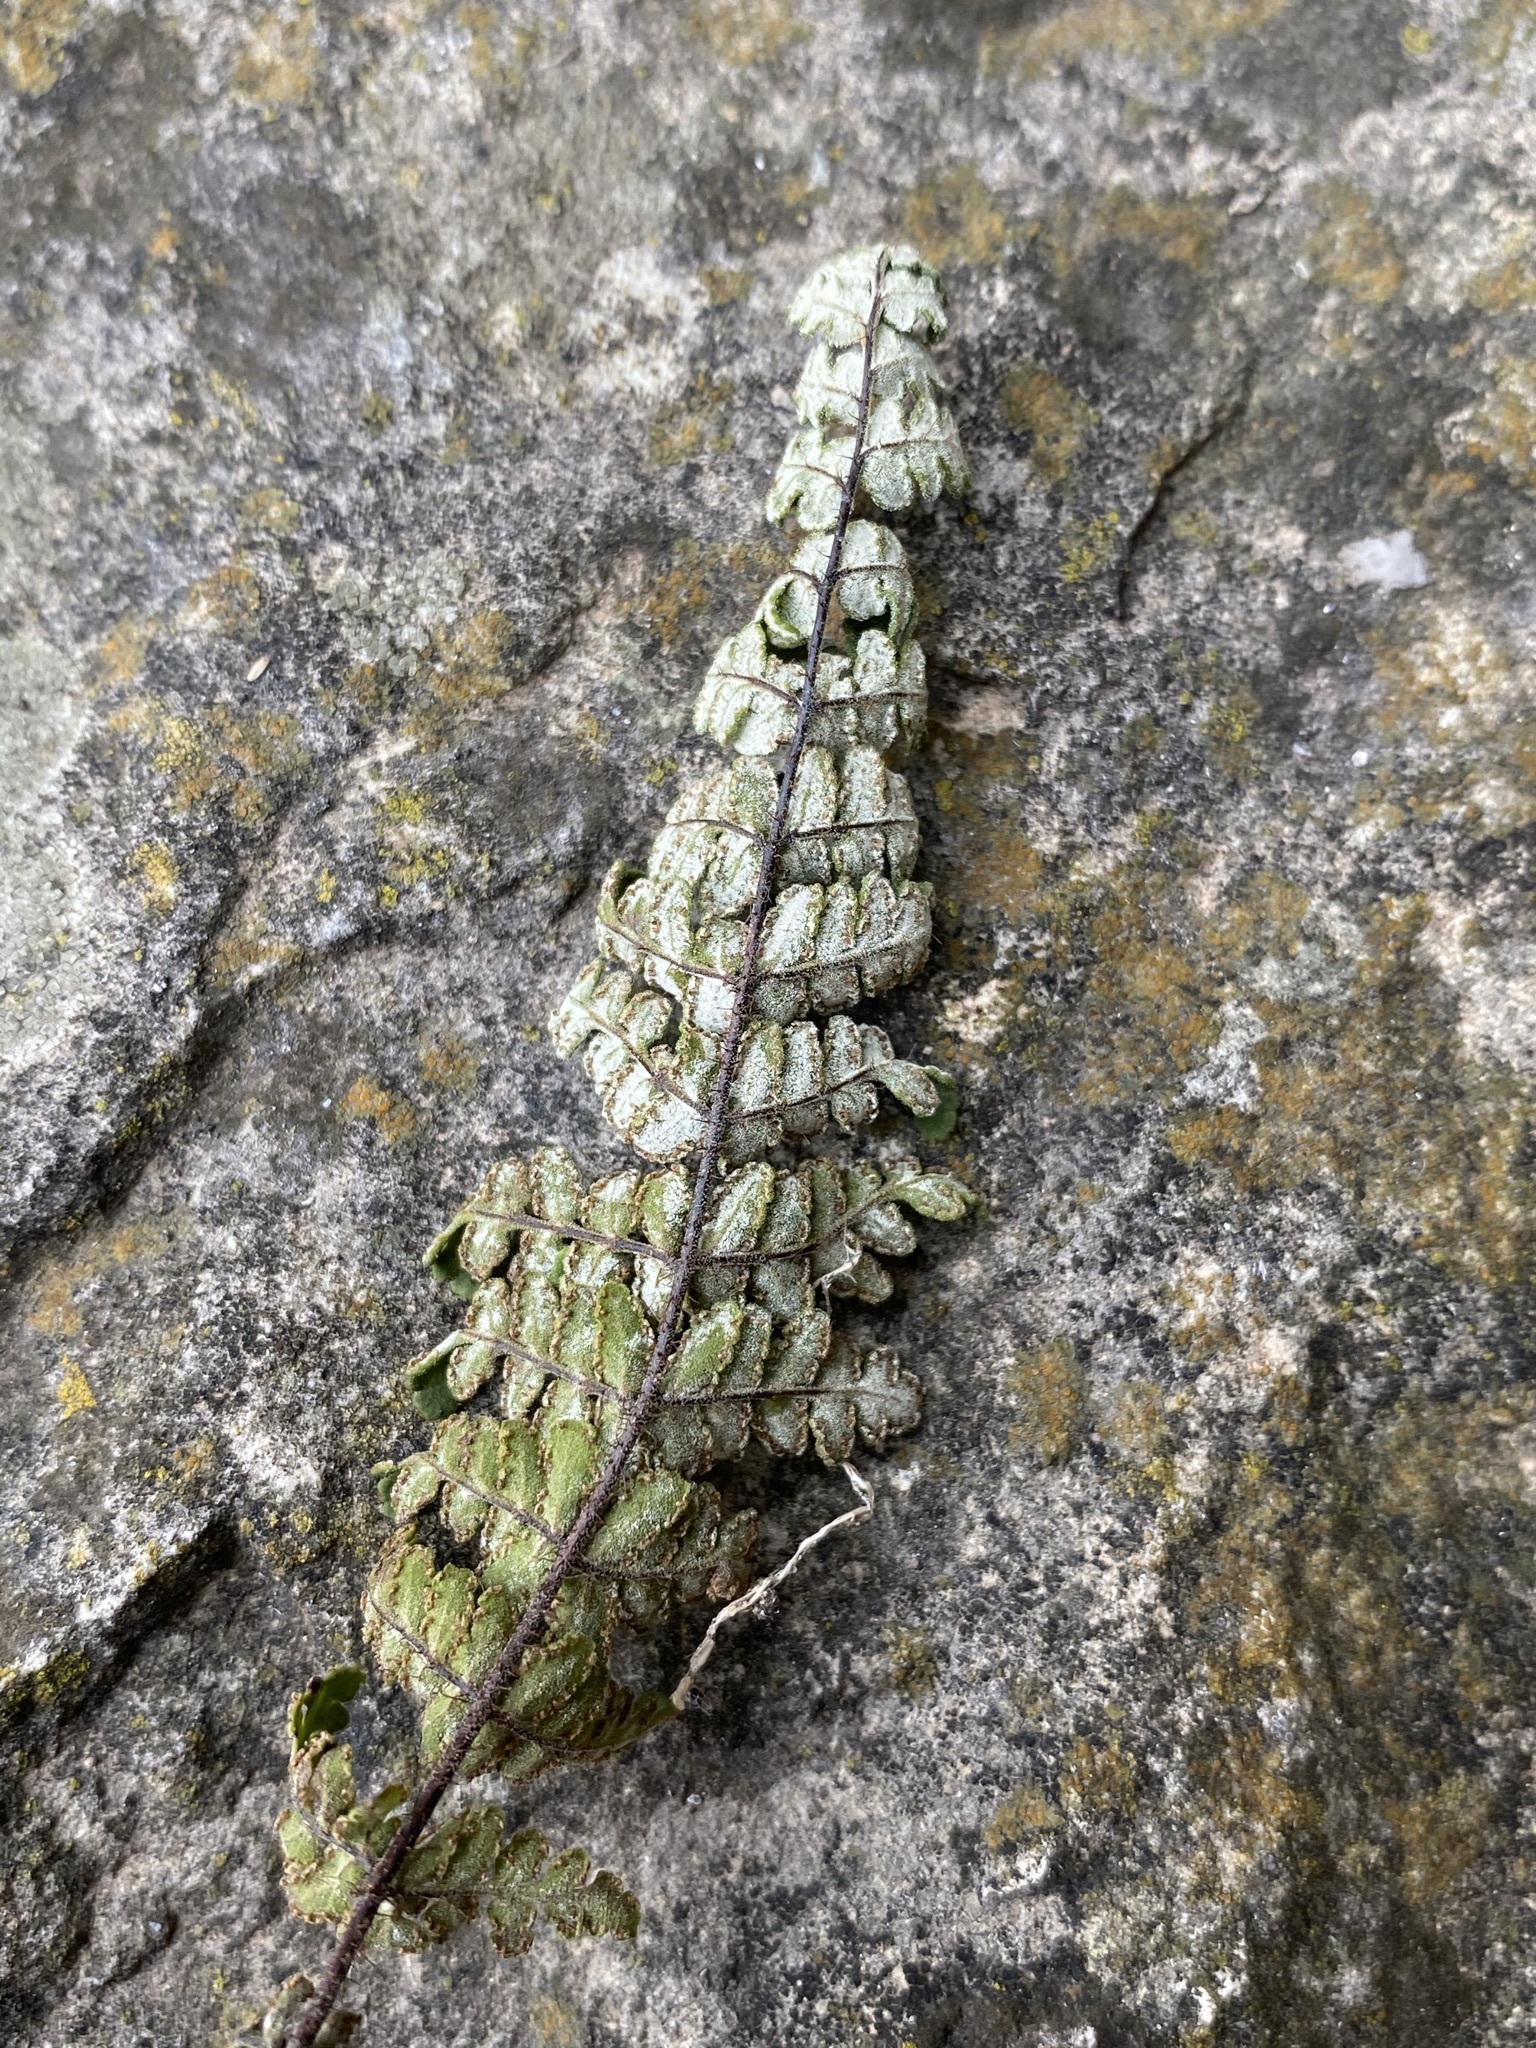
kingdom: Plantae
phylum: Tracheophyta
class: Polypodiopsida
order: Polypodiales
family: Pteridaceae
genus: Notholaena
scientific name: Notholaena schaffneri
